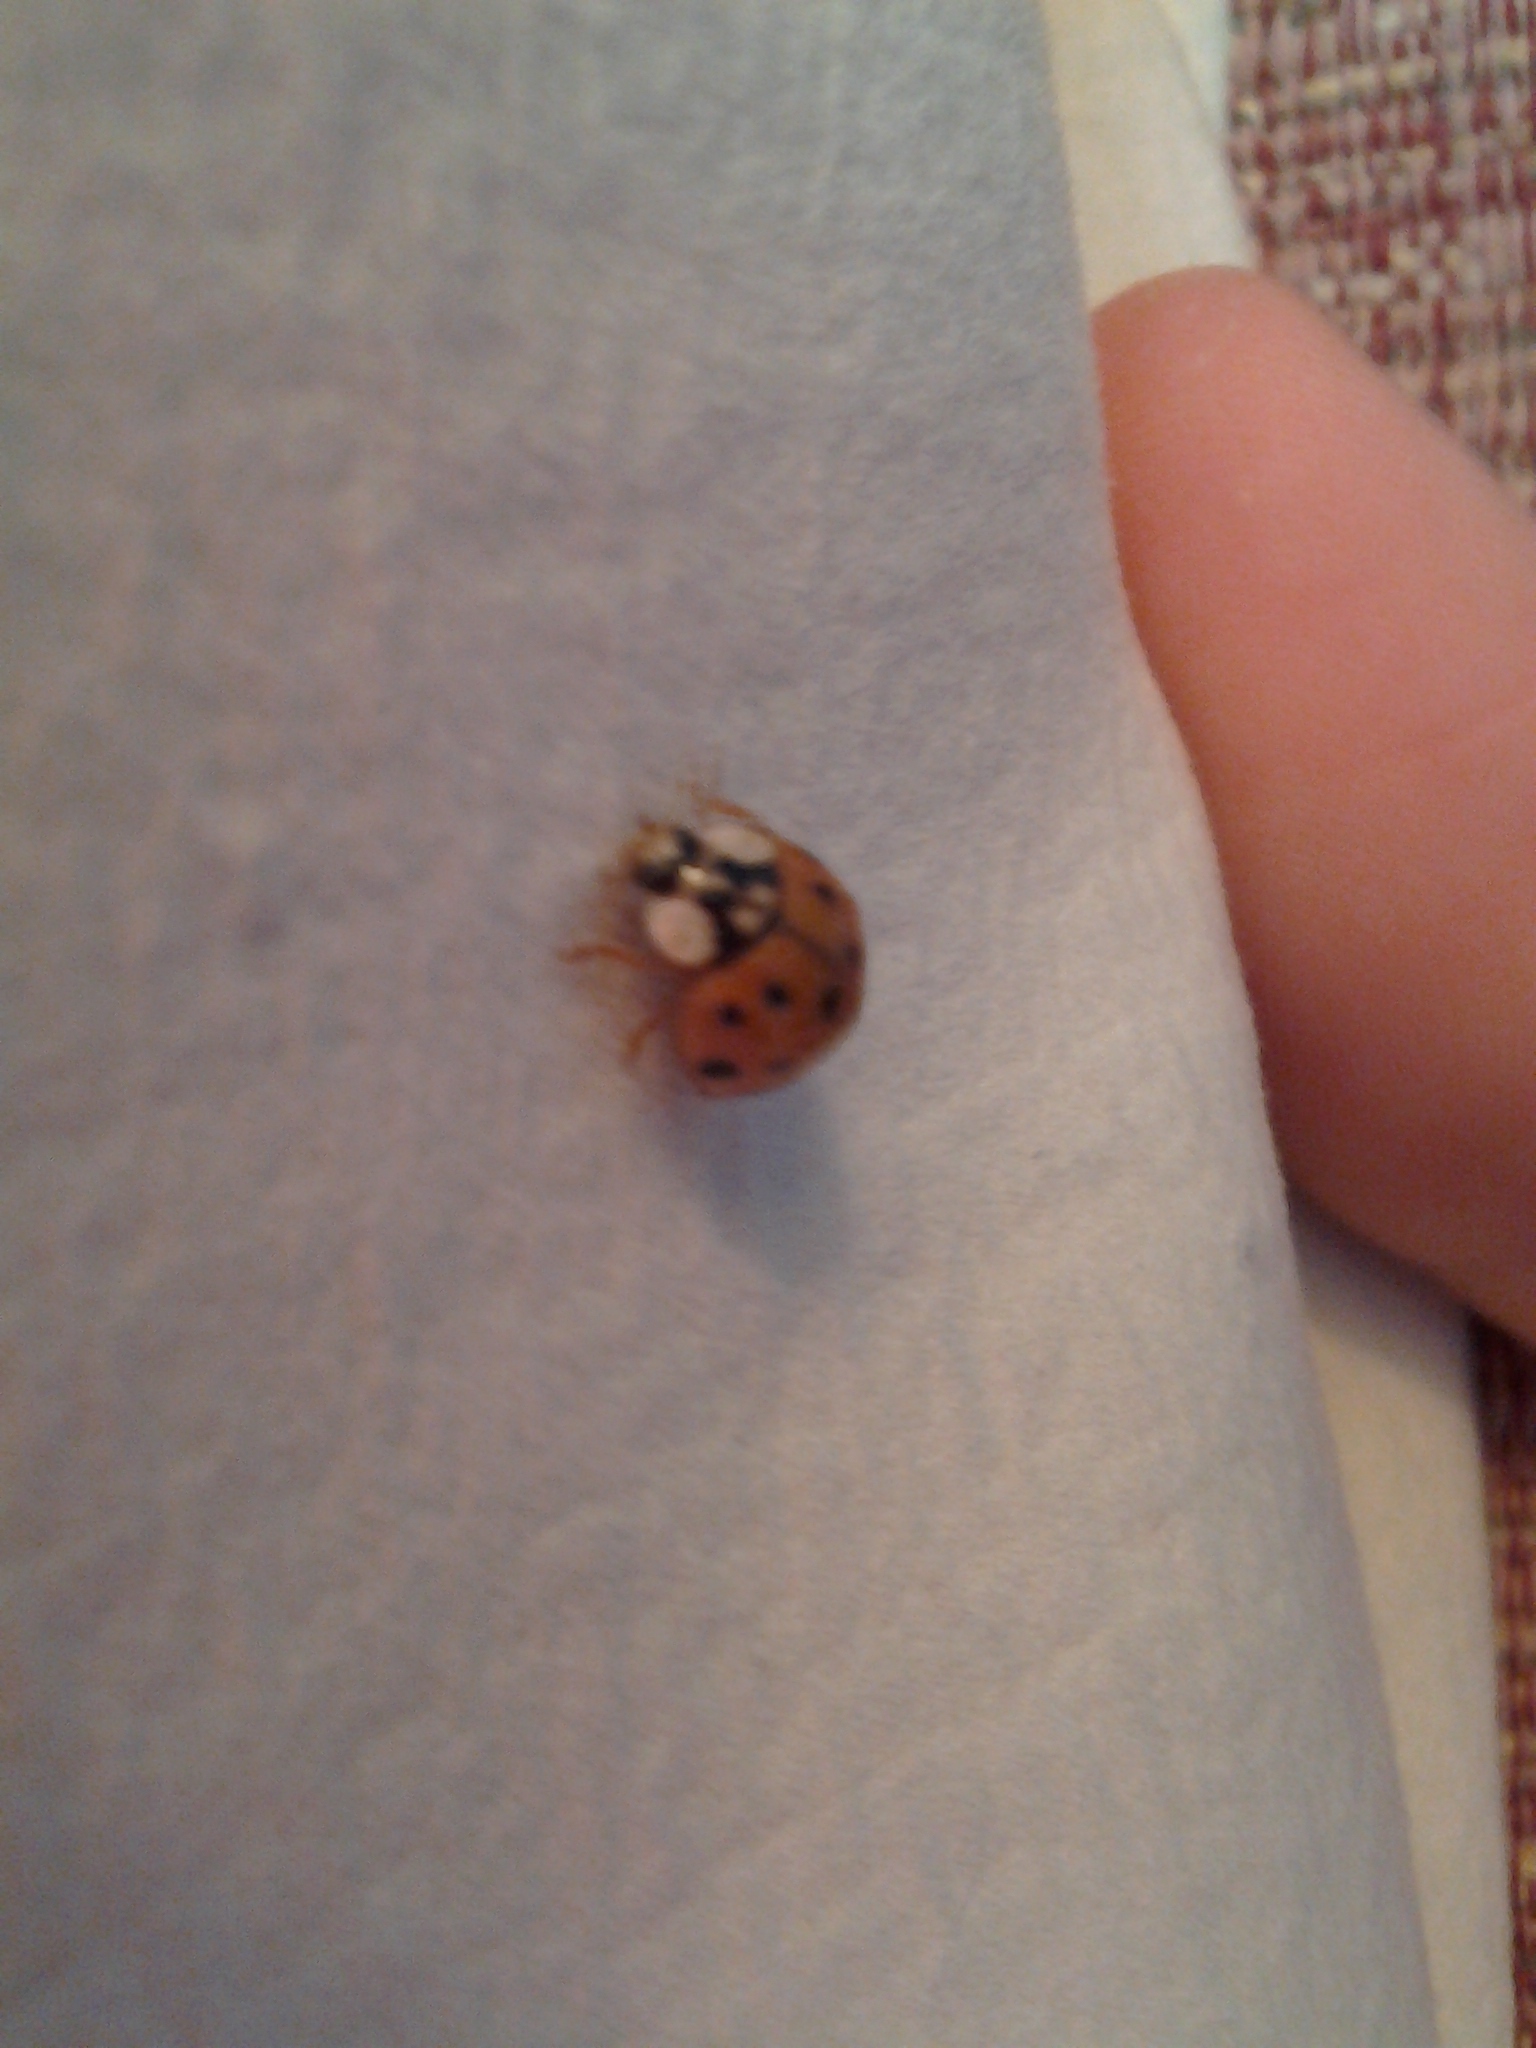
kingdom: Animalia
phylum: Arthropoda
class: Insecta
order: Coleoptera
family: Coccinellidae
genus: Harmonia
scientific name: Harmonia axyridis
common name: Harlequin ladybird
